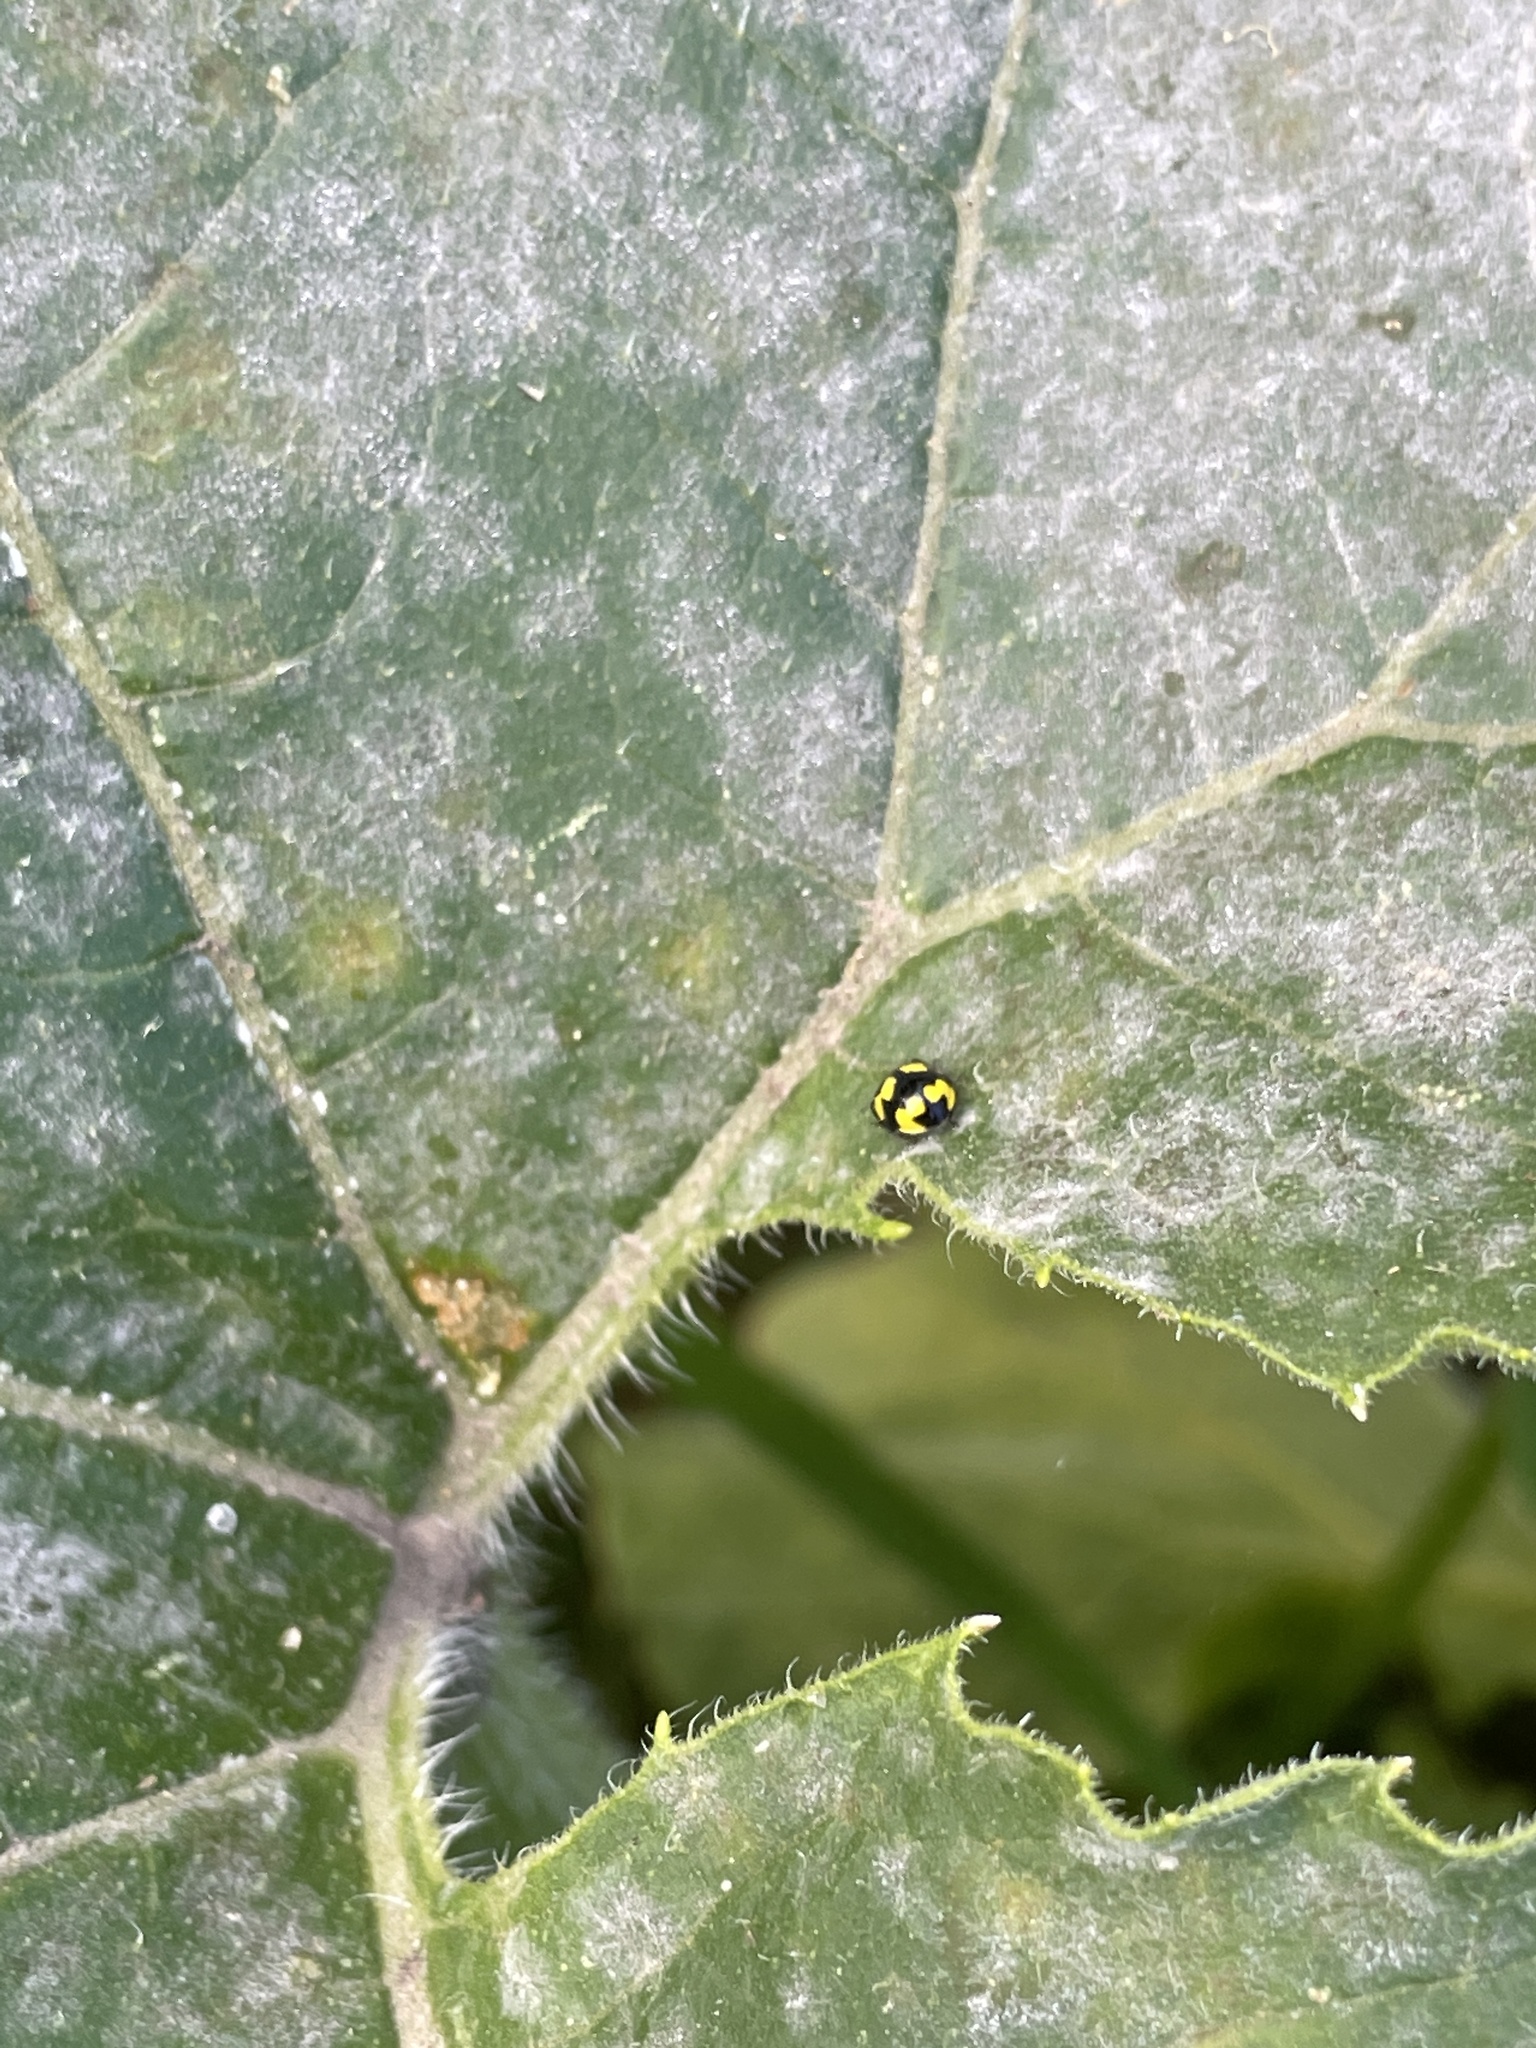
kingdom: Animalia
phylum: Arthropoda
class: Insecta
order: Coleoptera
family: Coccinellidae
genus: Illeis
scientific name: Illeis galbula
